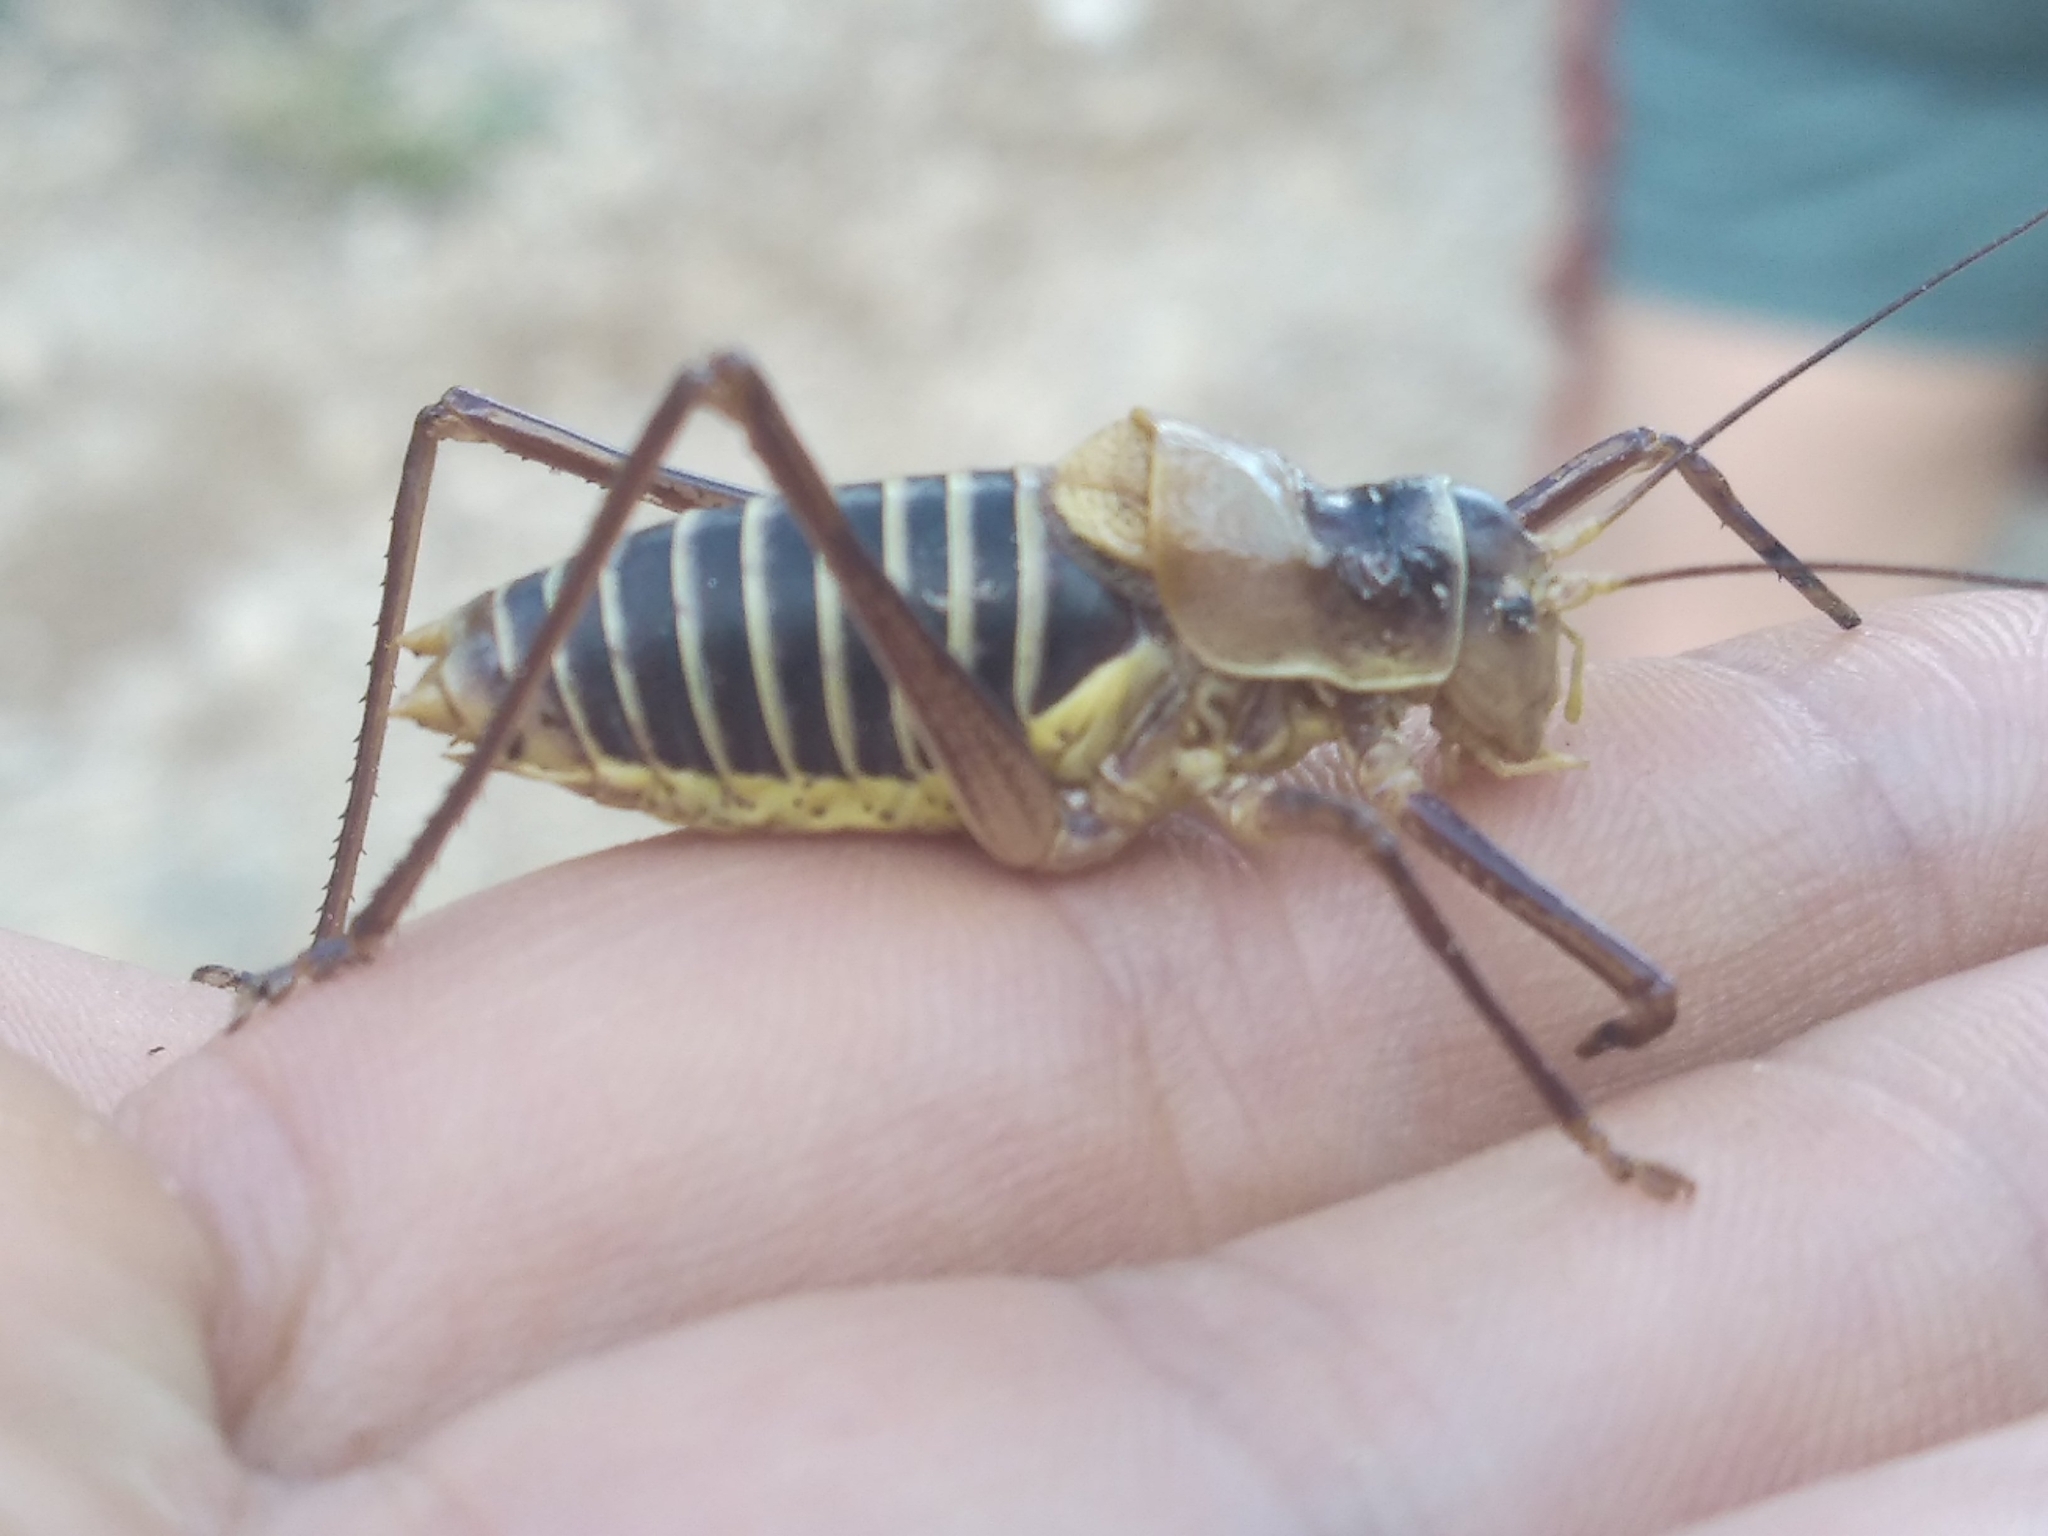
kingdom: Animalia
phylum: Arthropoda
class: Insecta
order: Orthoptera
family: Tettigoniidae
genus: Ephippiger
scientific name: Ephippiger diurnus
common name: Western saddle bush-cricket
